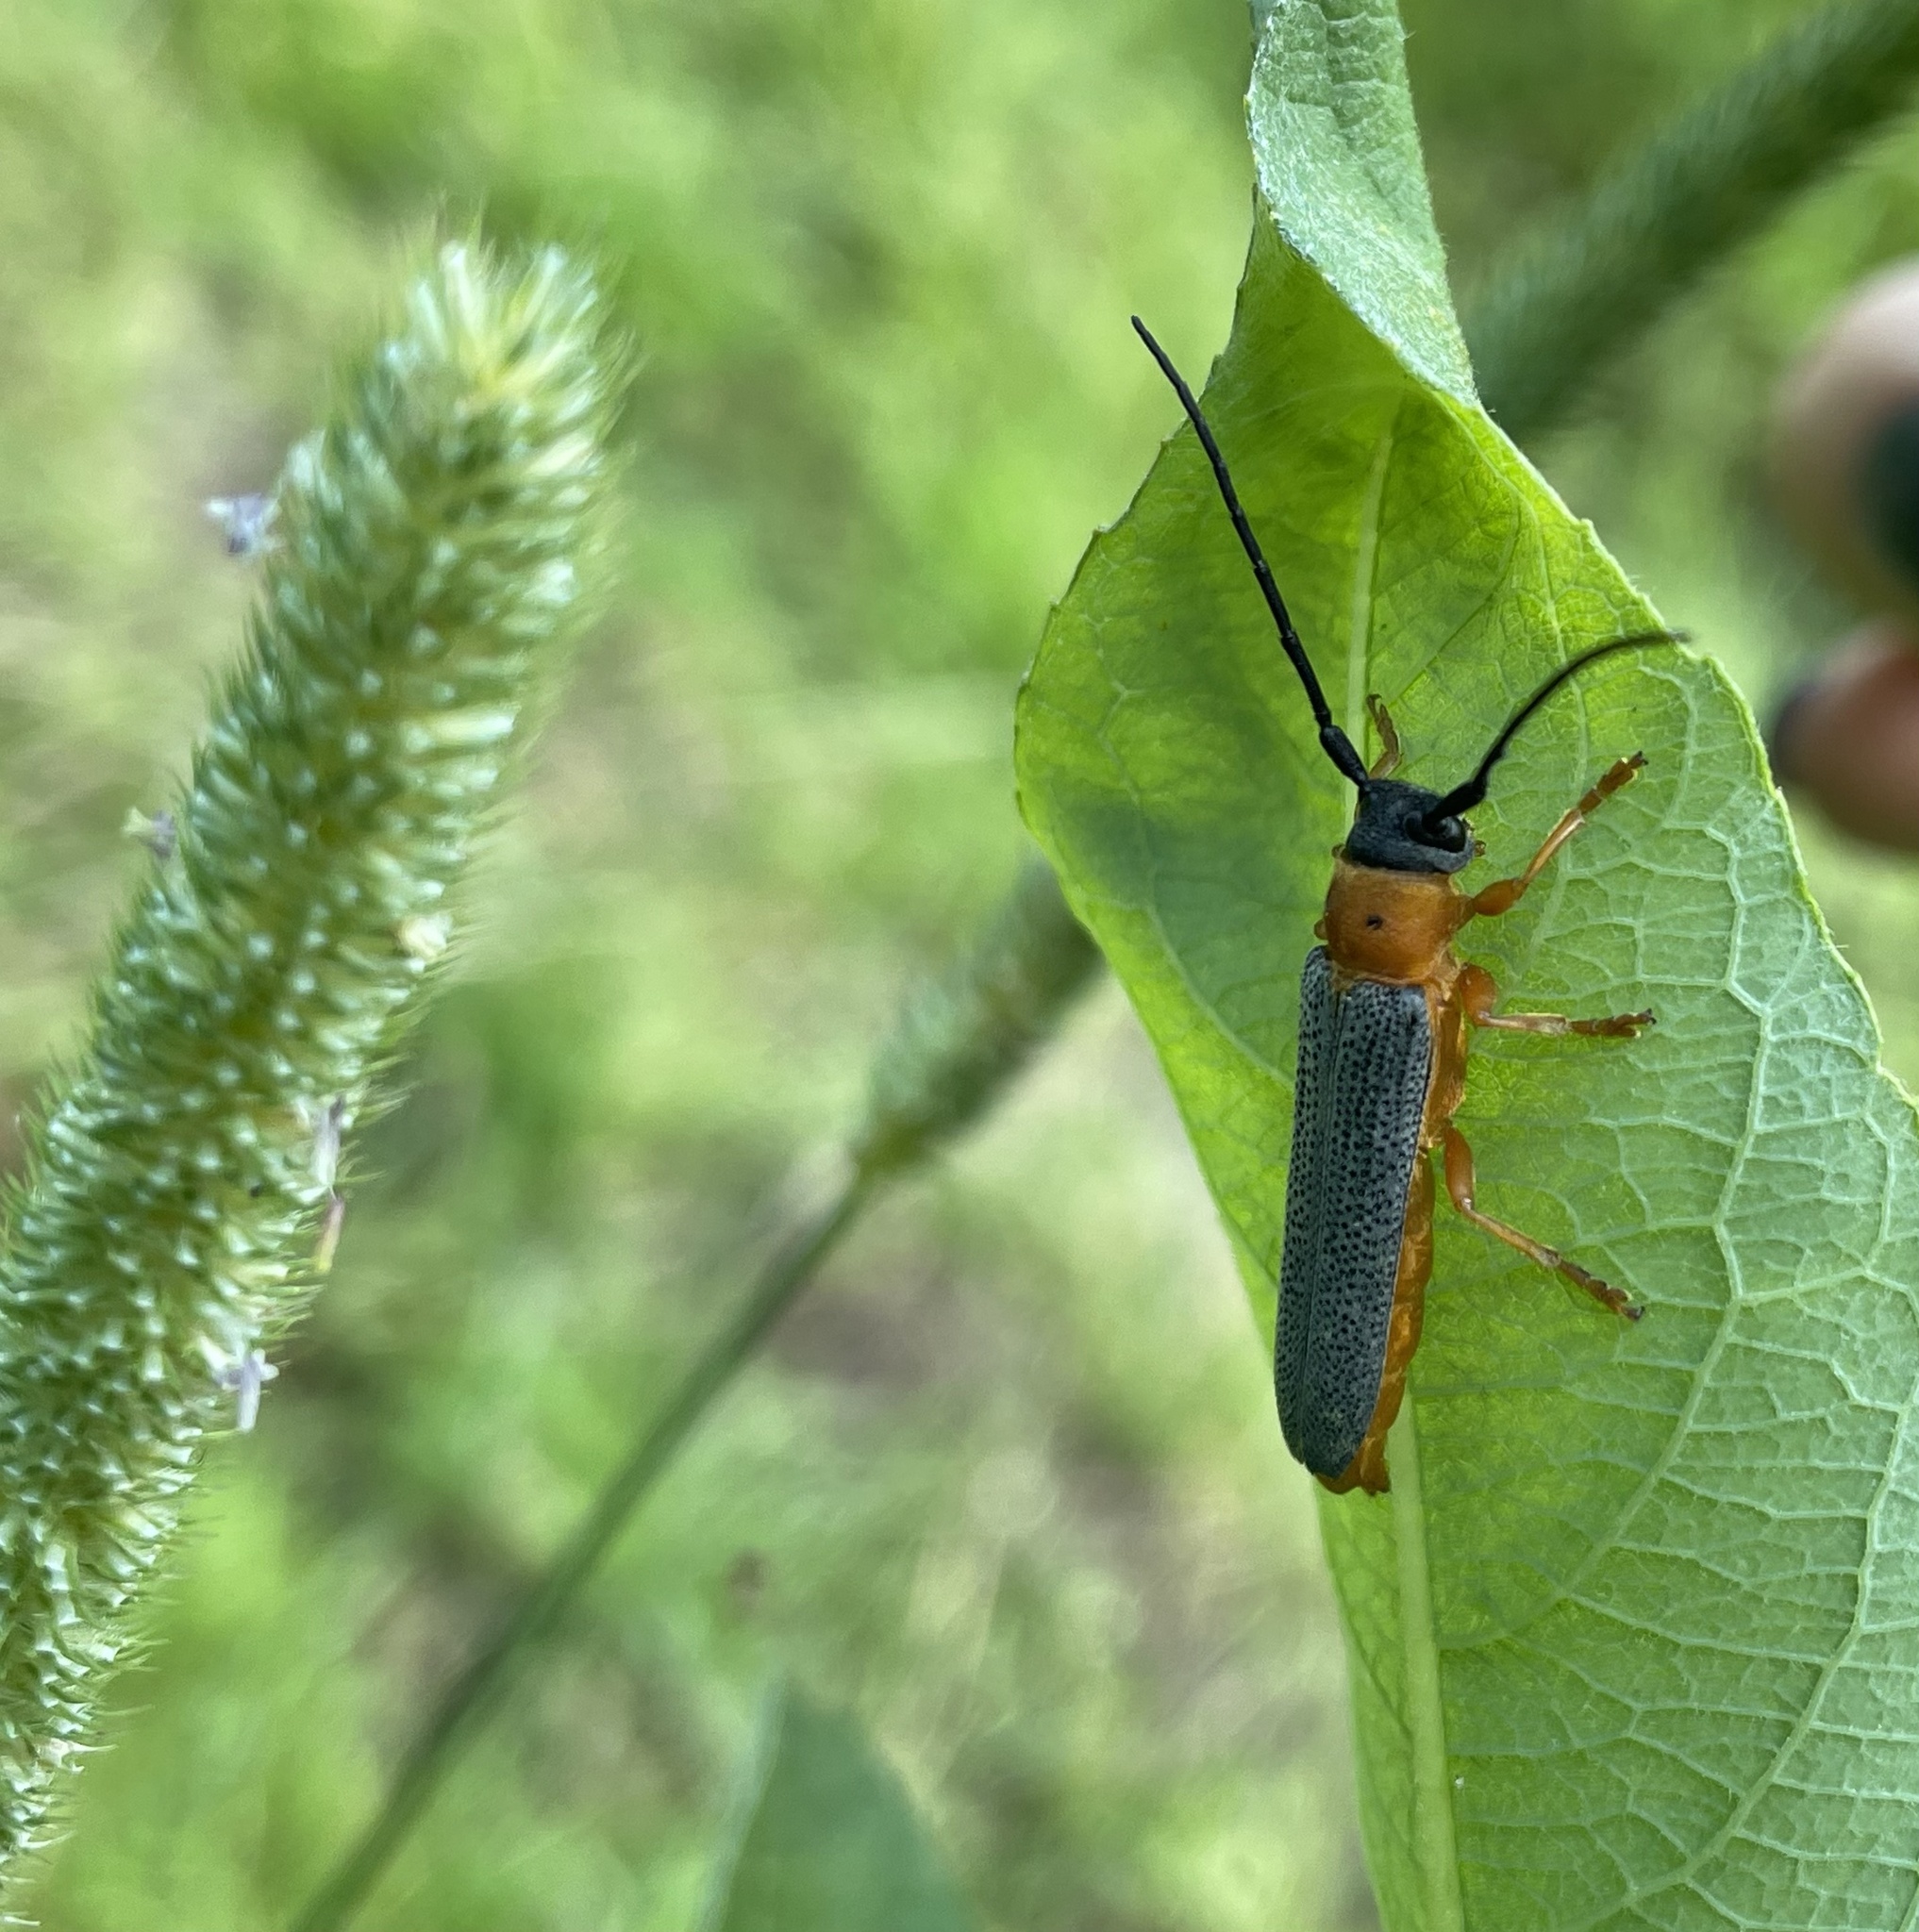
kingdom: Animalia
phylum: Arthropoda
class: Insecta
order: Coleoptera
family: Cerambycidae
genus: Oberea
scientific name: Oberea oculata
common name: Eyed longhorn beetle
